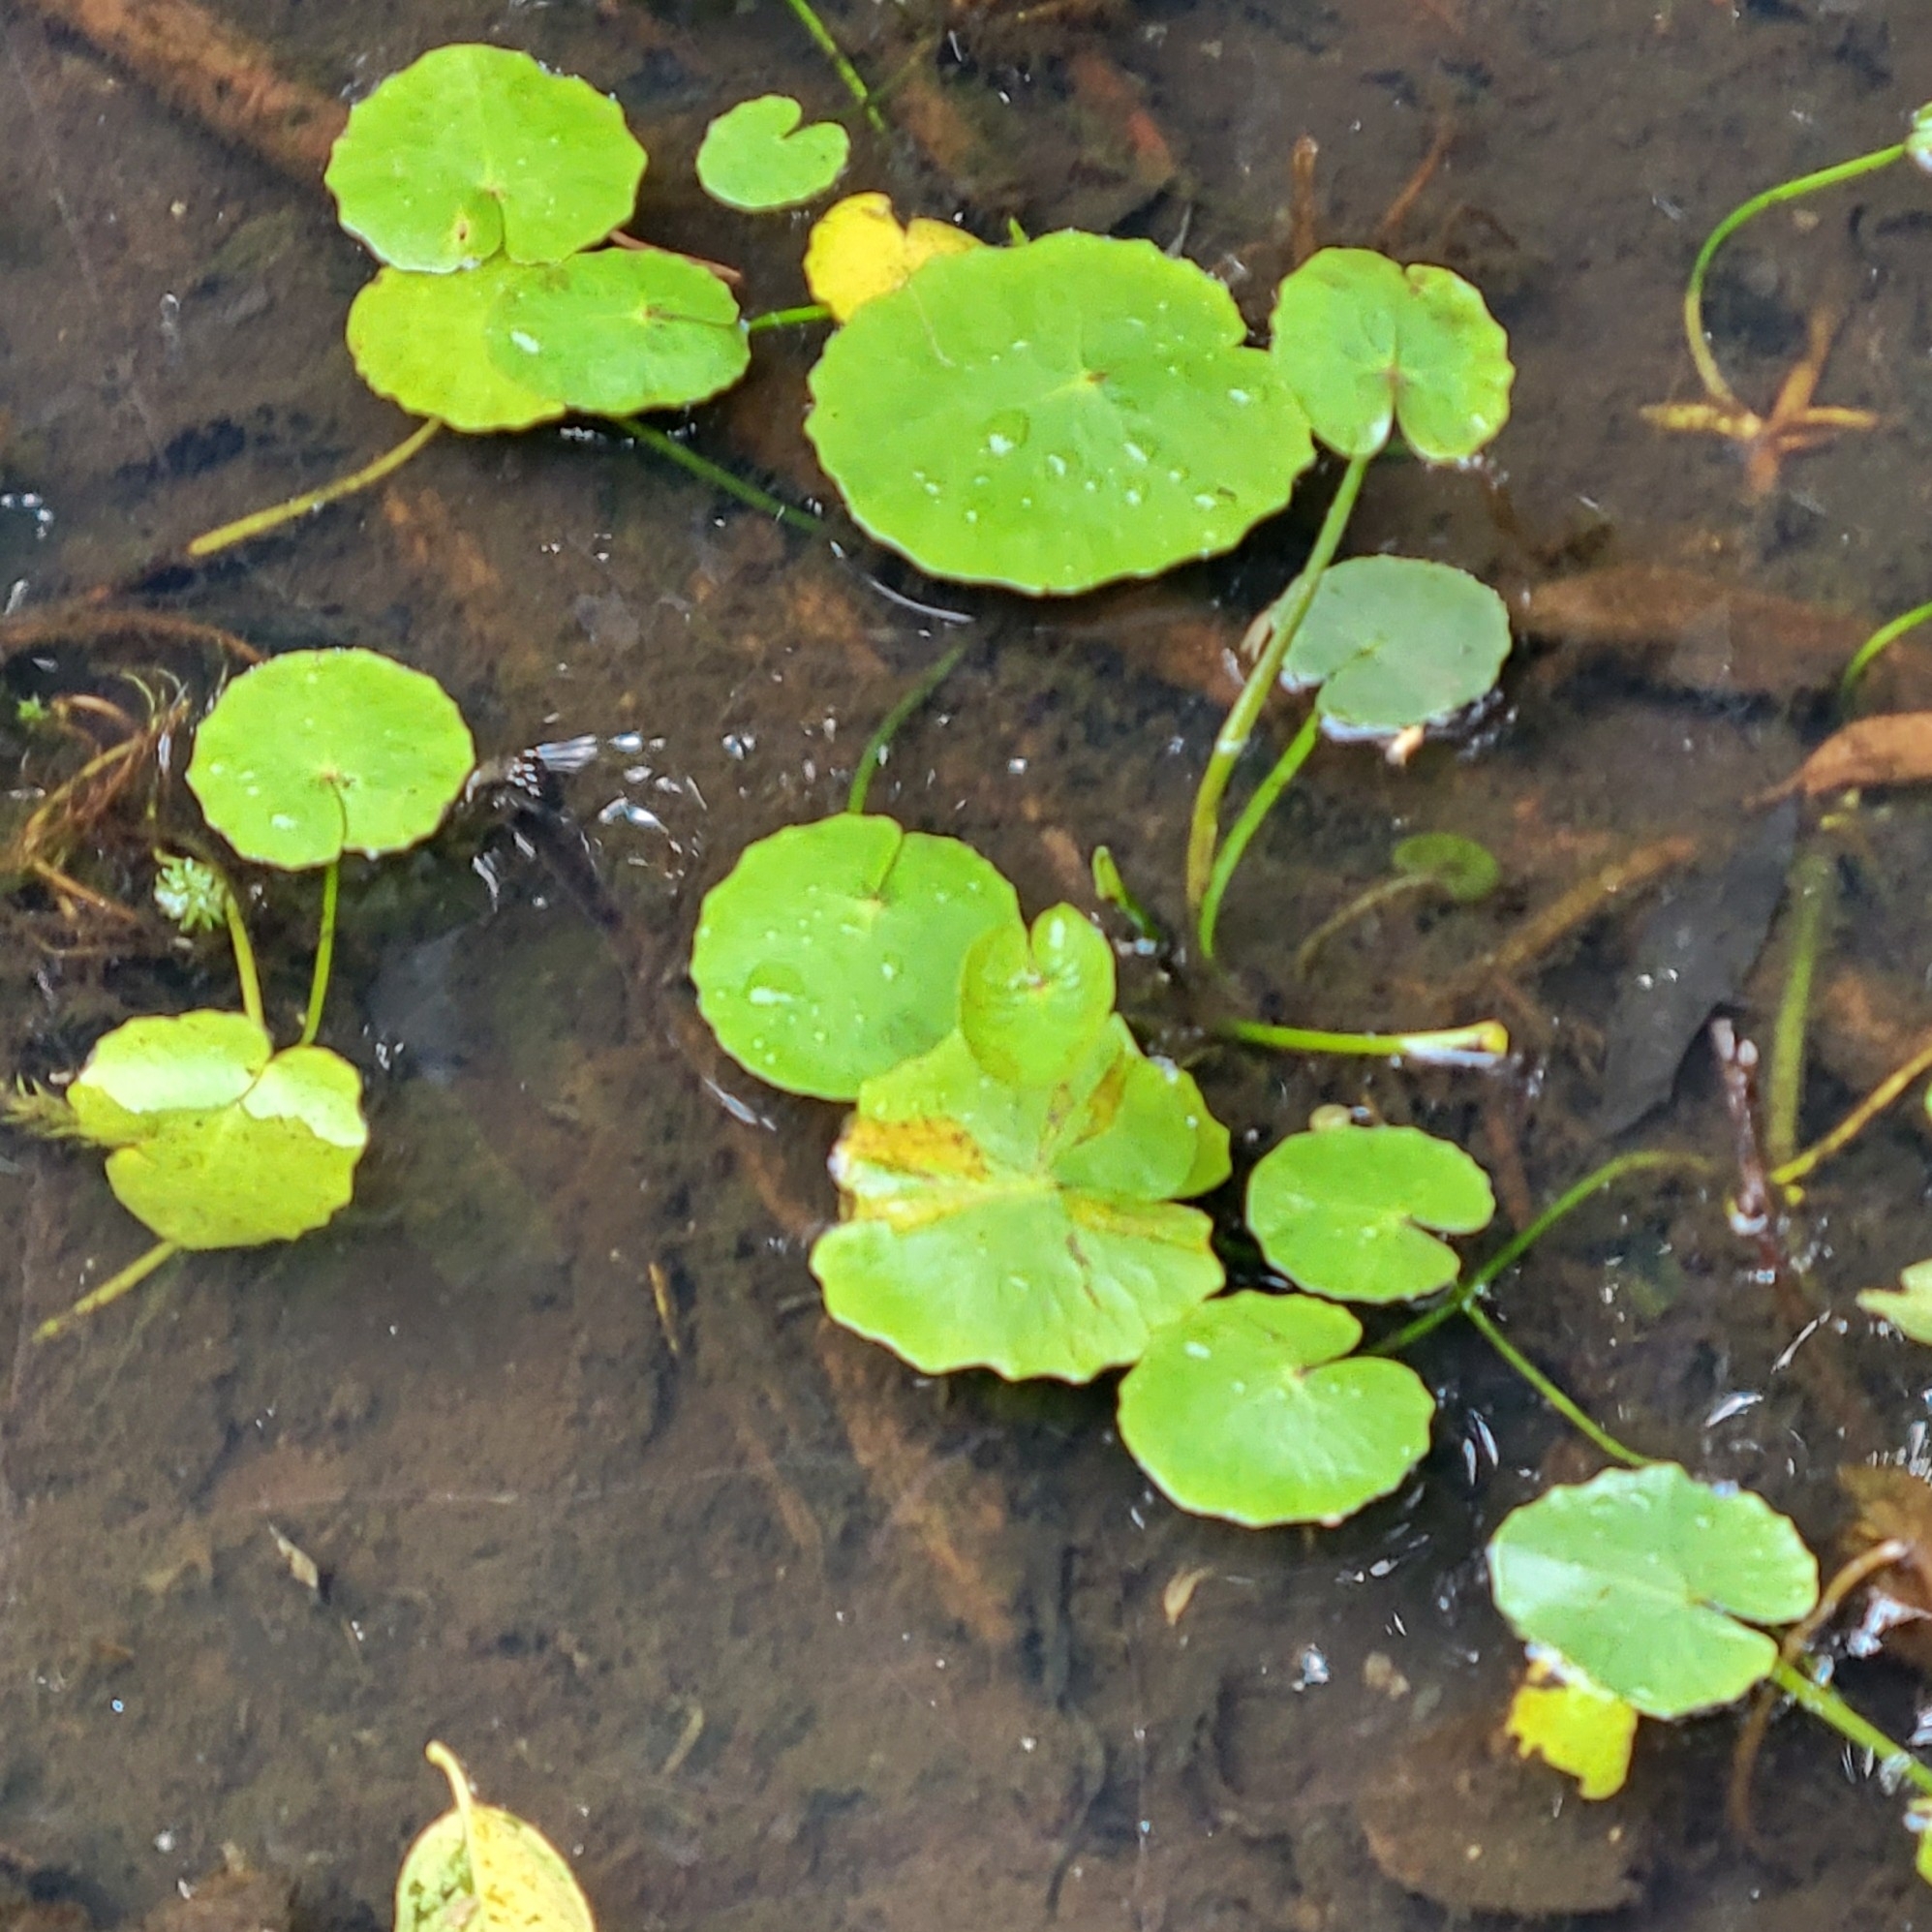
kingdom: Plantae
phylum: Tracheophyta
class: Magnoliopsida
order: Asterales
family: Menyanthaceae
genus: Nymphoides
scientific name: Nymphoides peltata
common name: Fringed water-lily
